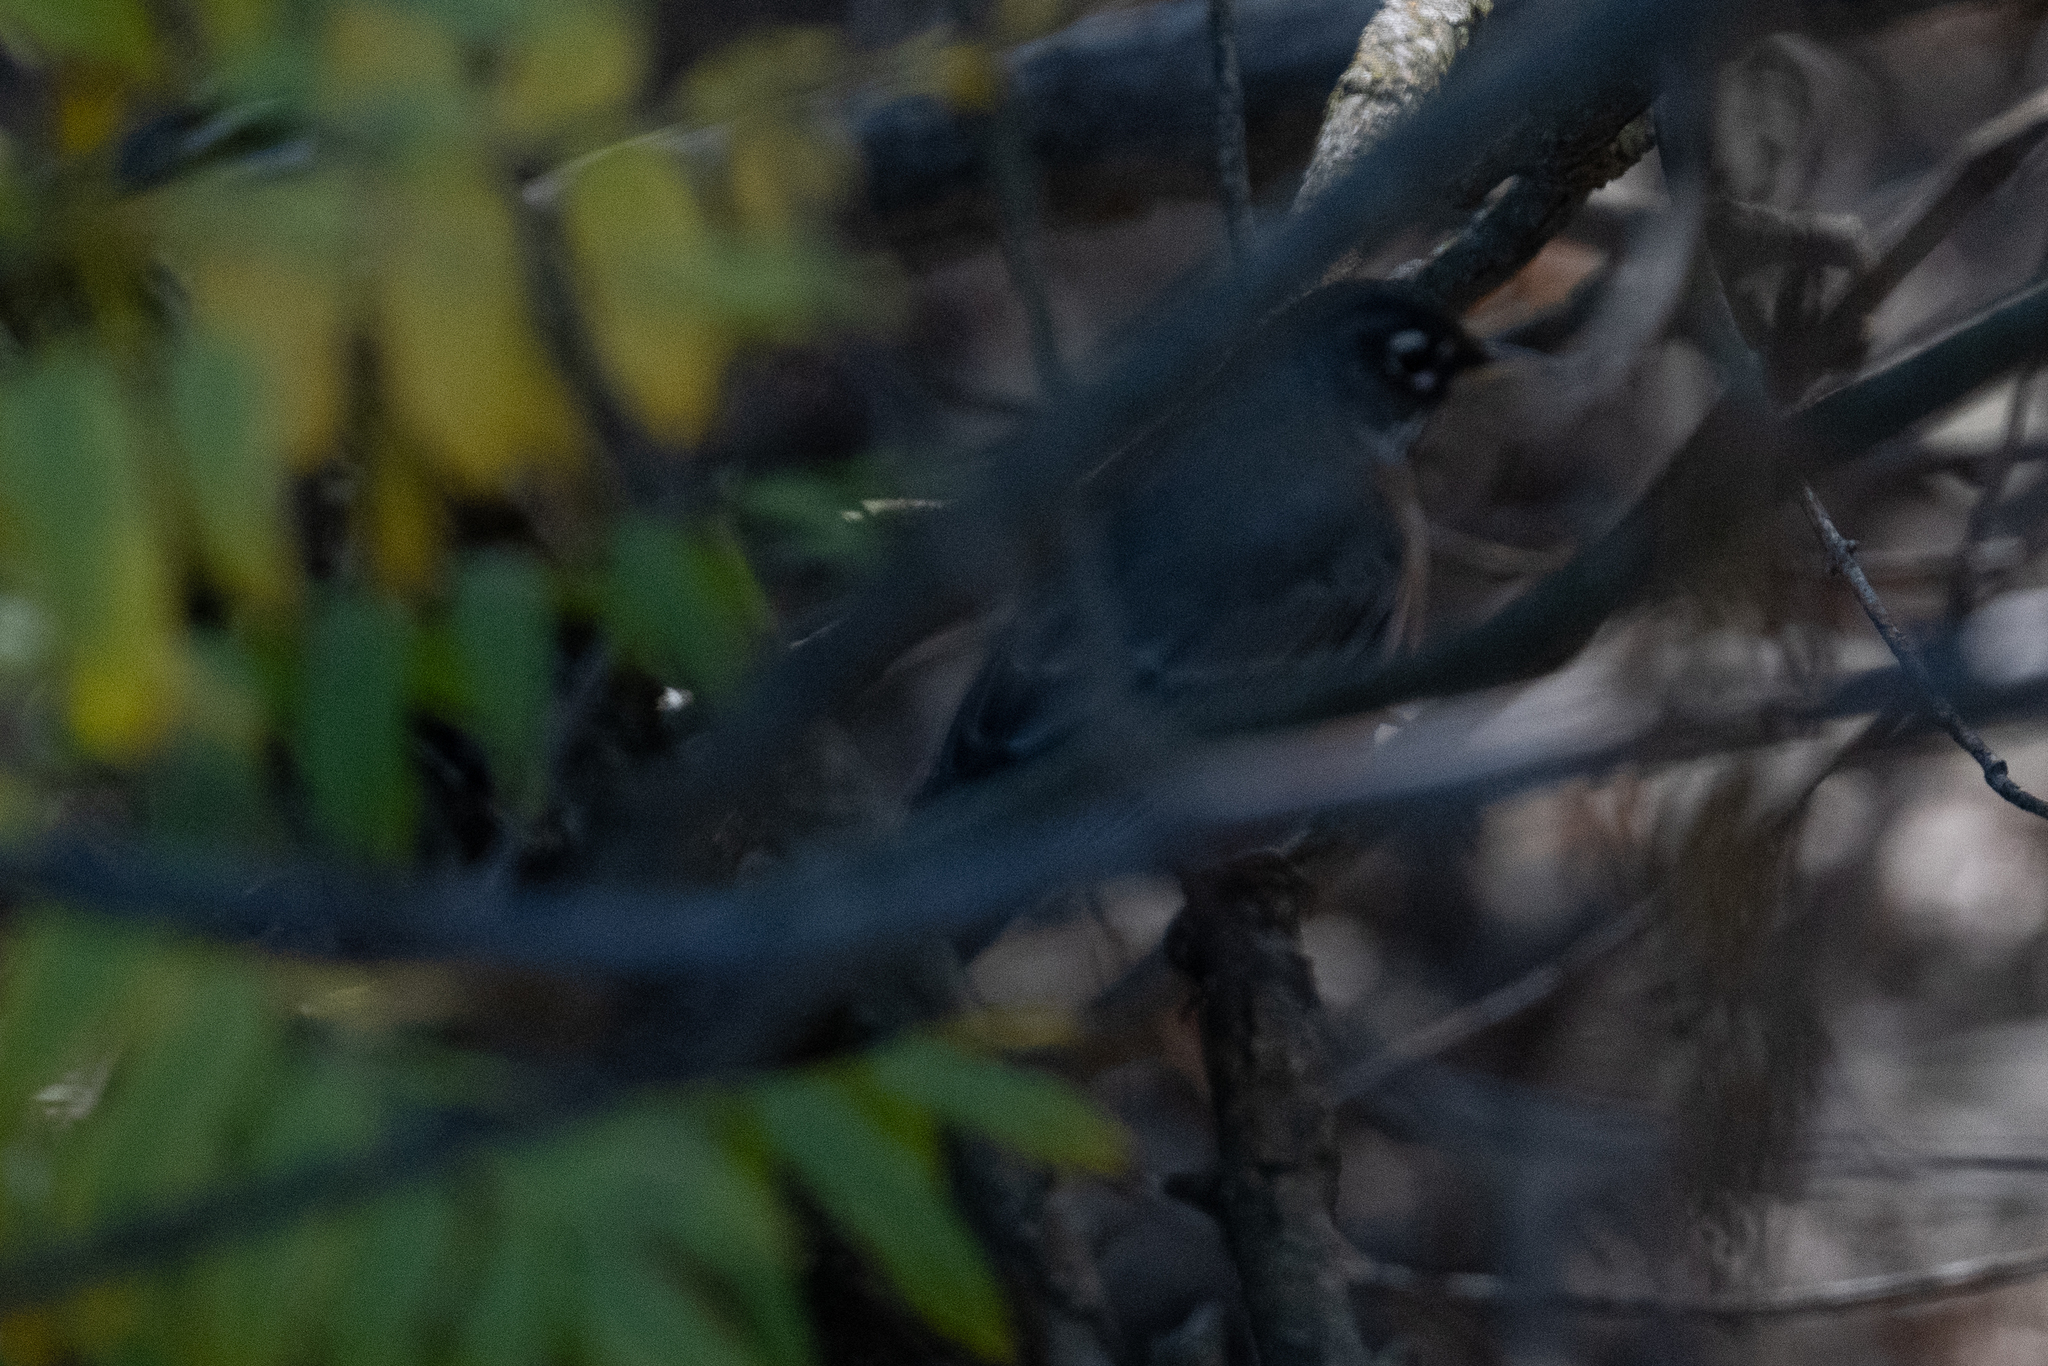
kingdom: Animalia
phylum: Chordata
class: Aves
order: Passeriformes
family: Turdidae
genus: Turdus
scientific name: Turdus migratorius
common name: American robin
